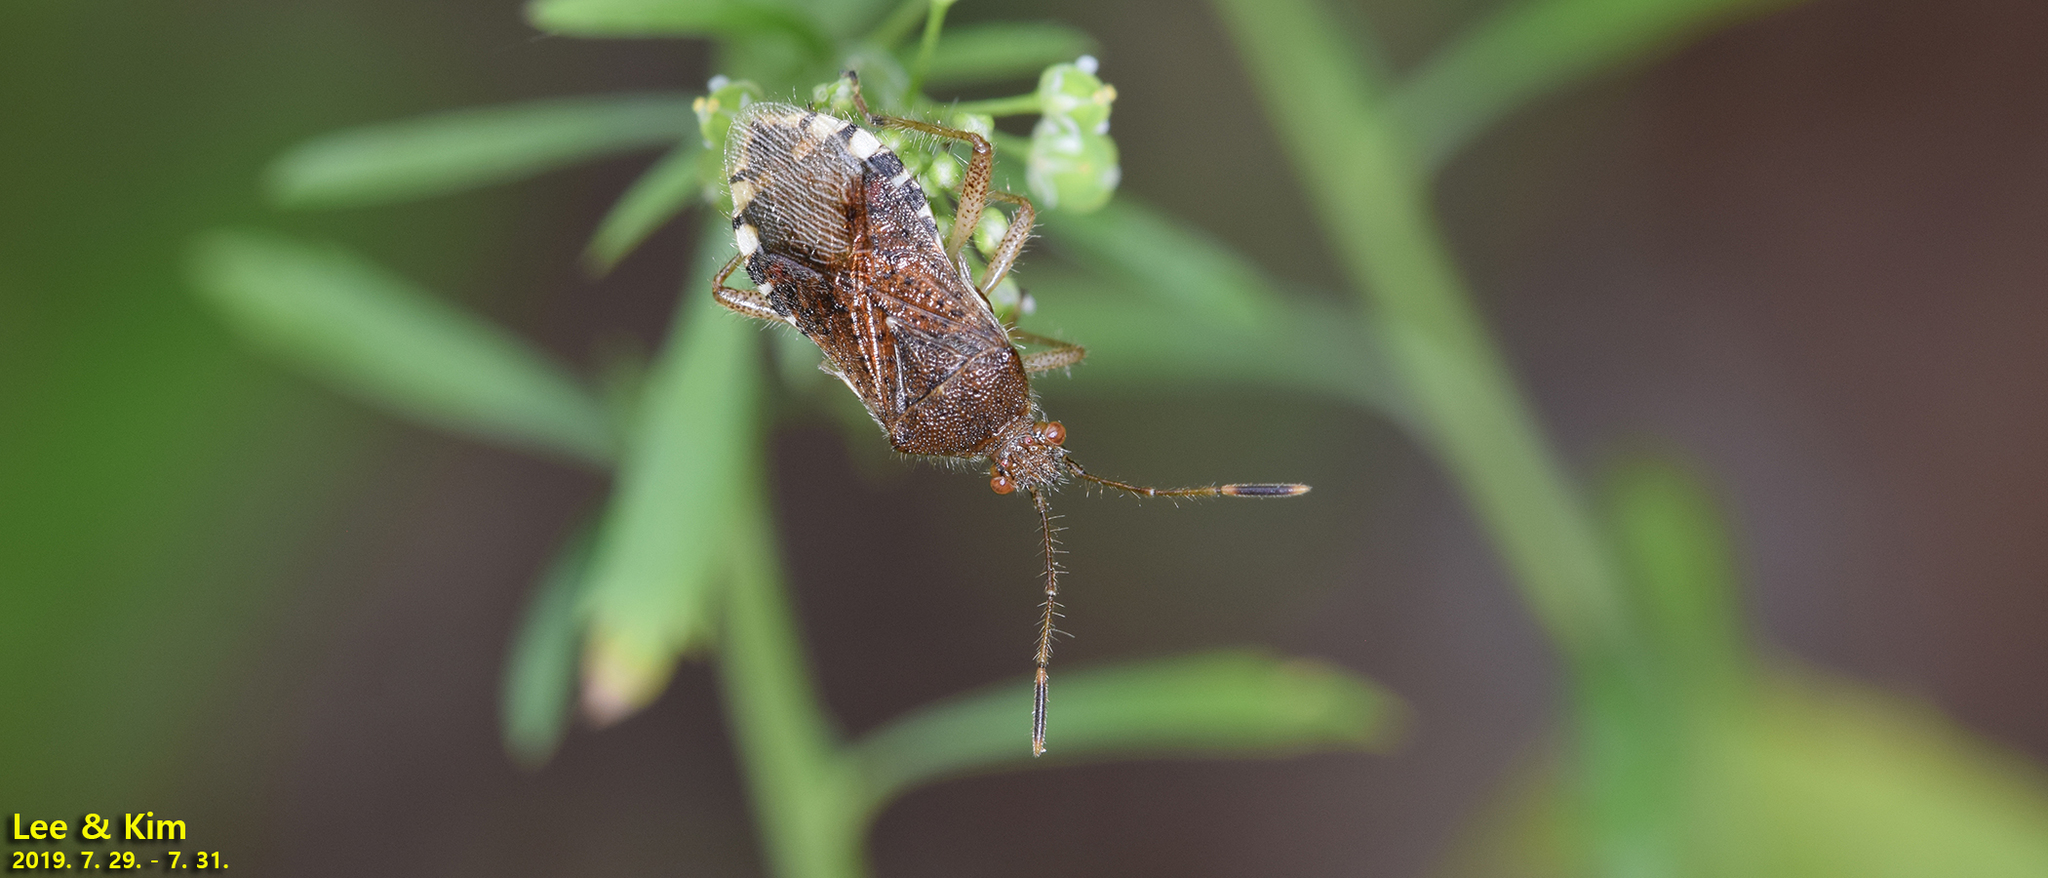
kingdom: Animalia
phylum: Arthropoda
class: Insecta
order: Hemiptera
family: Rhopalidae
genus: Rhopalus
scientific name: Rhopalus sapporensis
